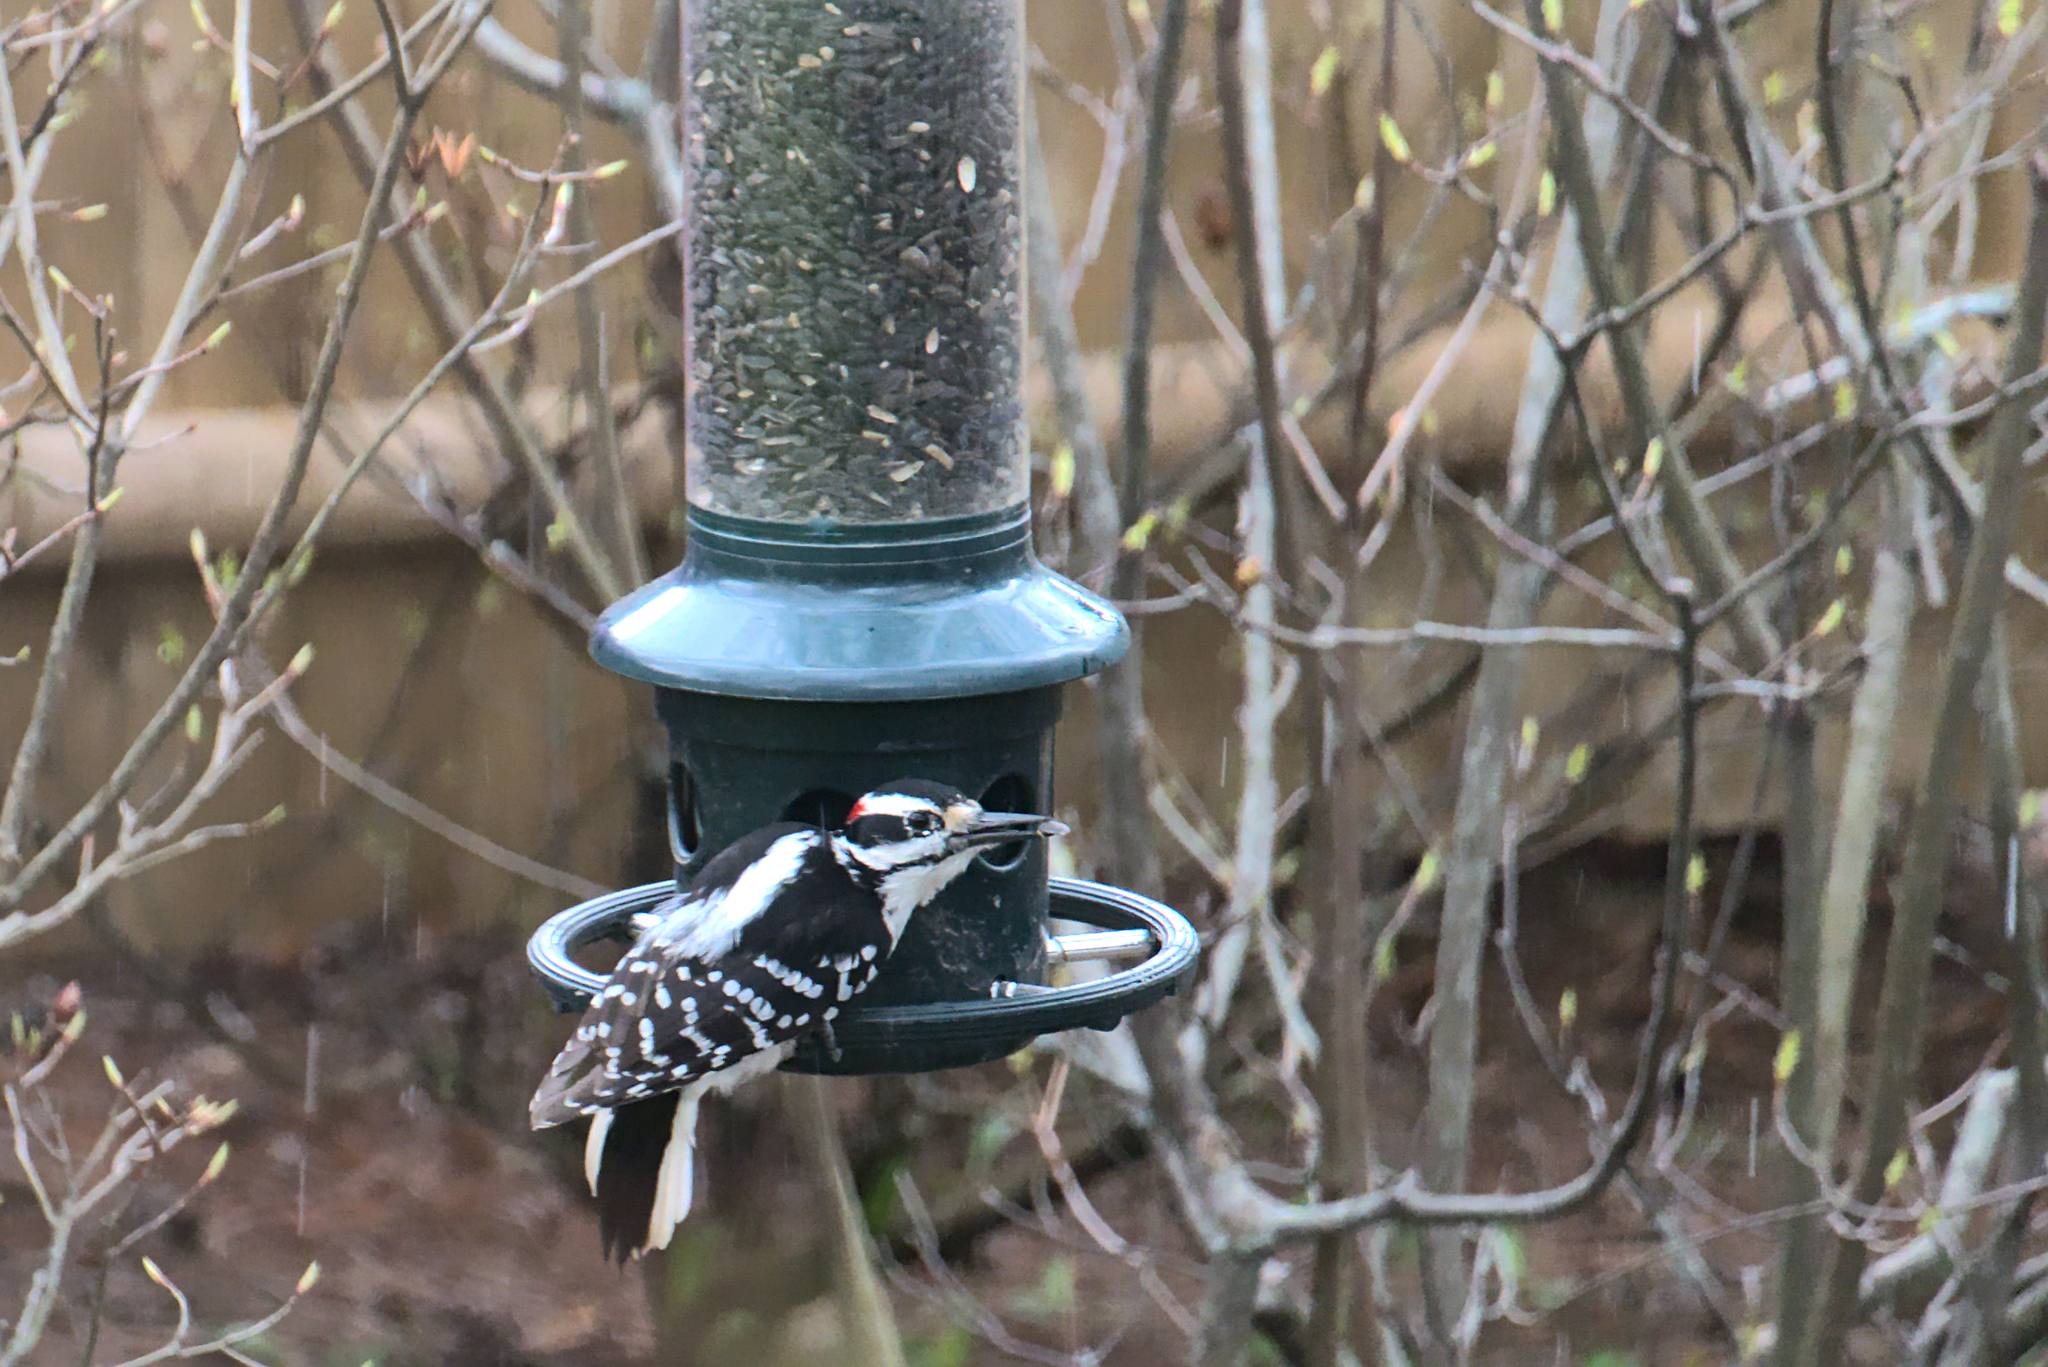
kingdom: Animalia
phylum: Chordata
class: Aves
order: Piciformes
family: Picidae
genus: Leuconotopicus
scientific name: Leuconotopicus villosus
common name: Hairy woodpecker
